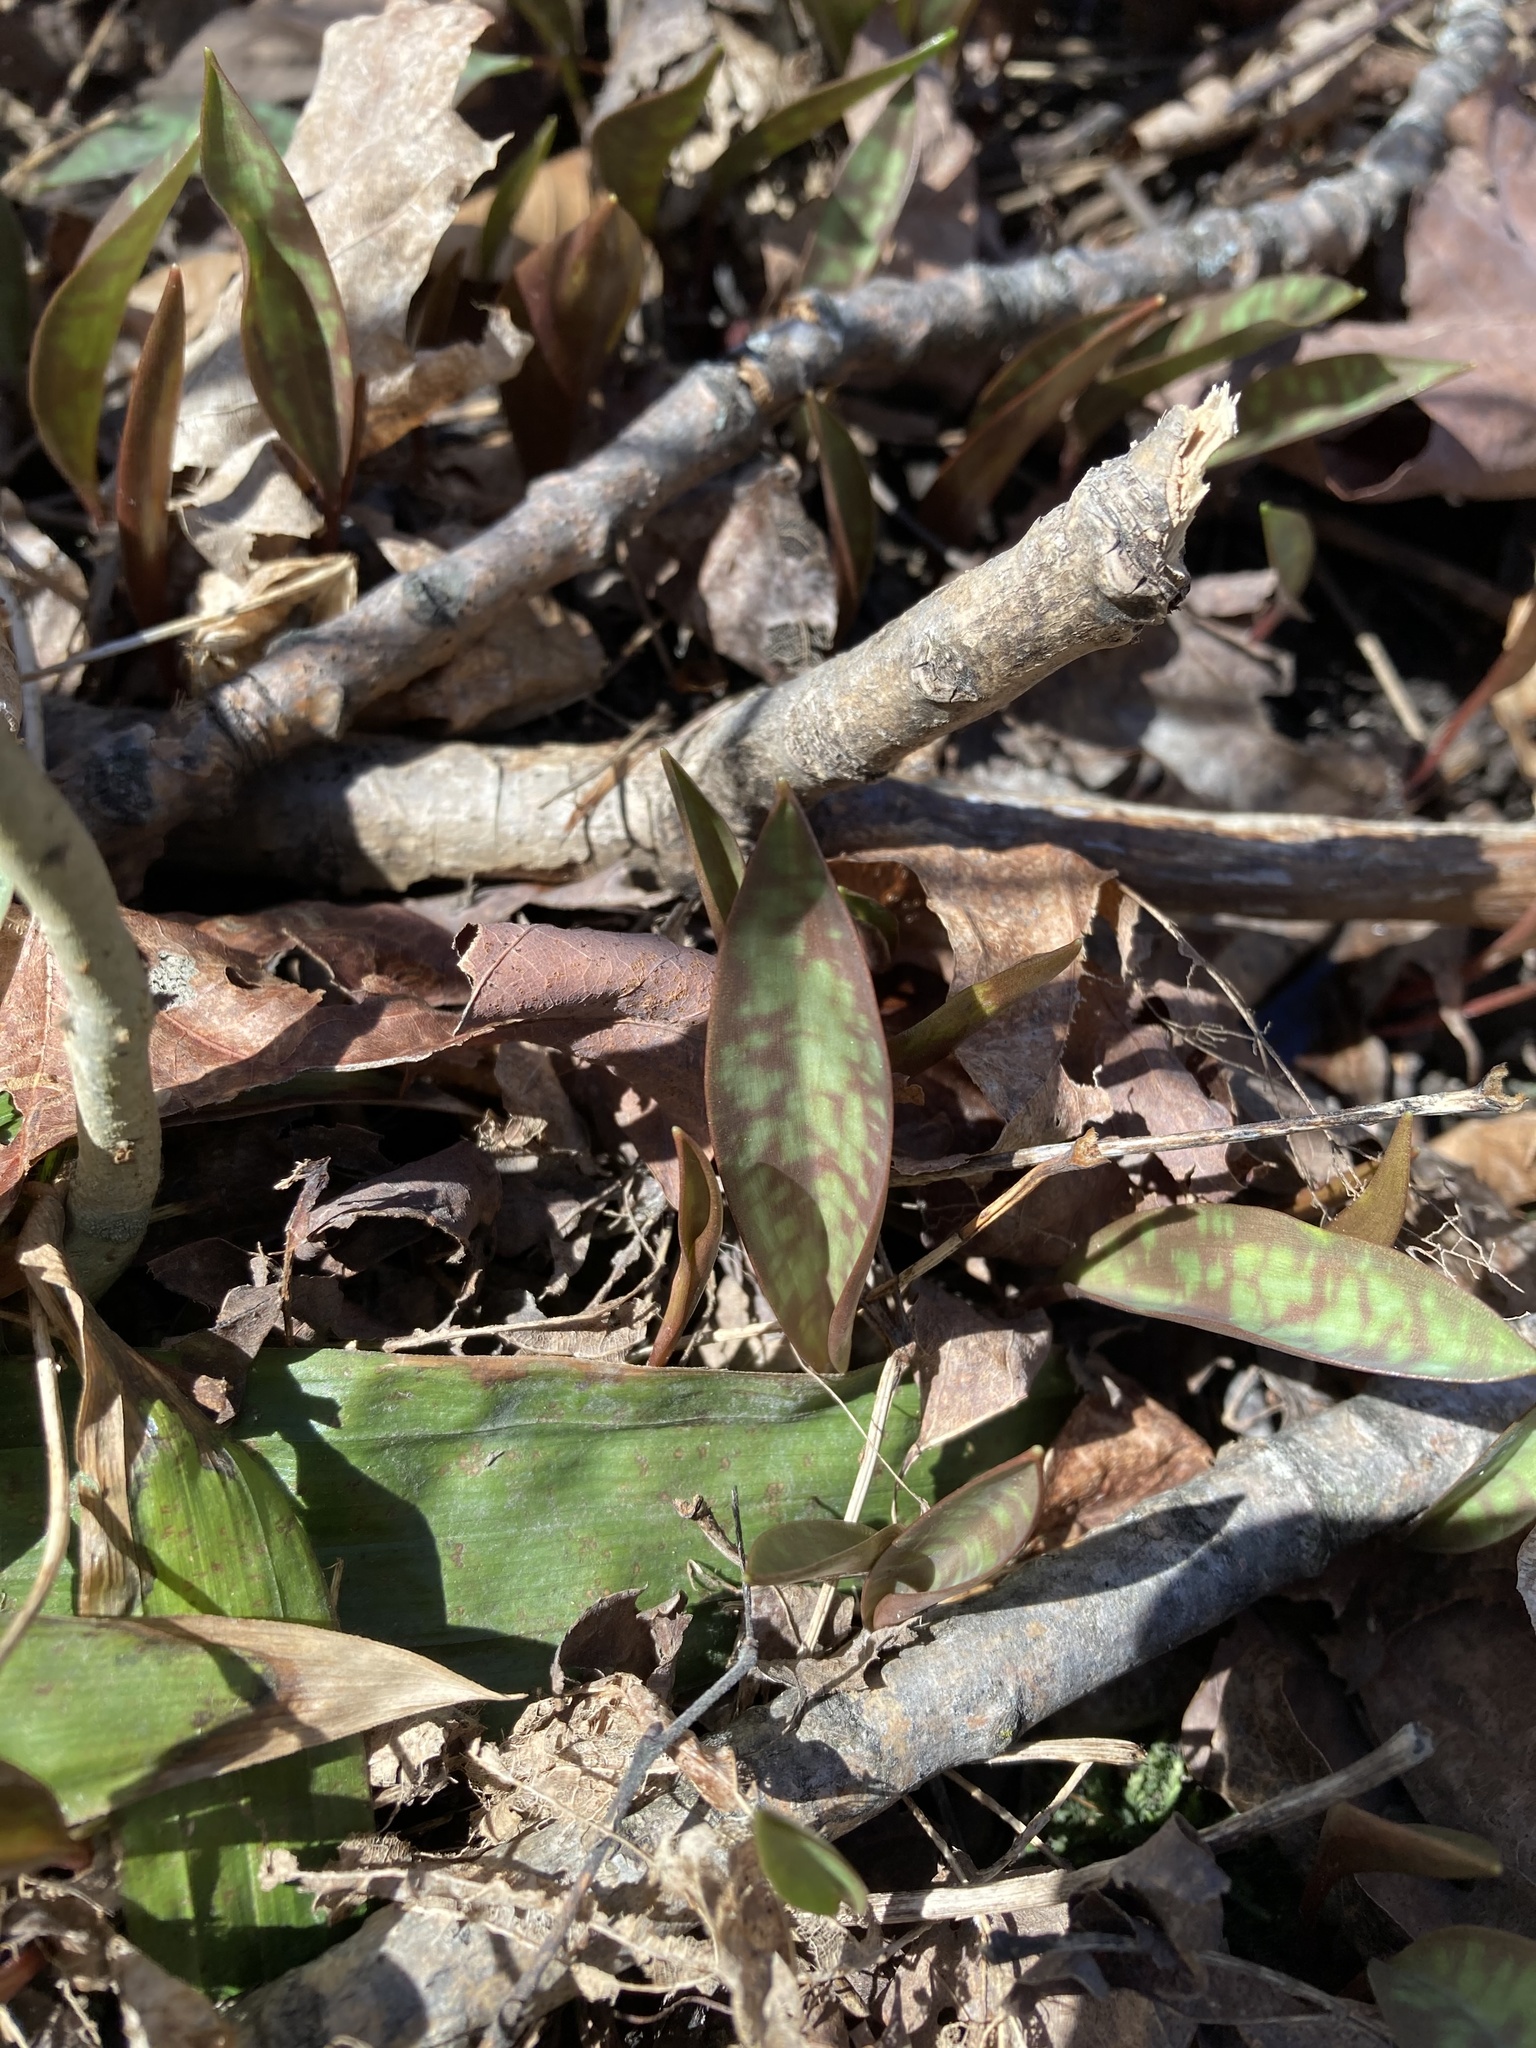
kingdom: Plantae
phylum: Tracheophyta
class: Liliopsida
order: Liliales
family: Liliaceae
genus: Erythronium
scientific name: Erythronium americanum
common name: Yellow adder's-tongue
